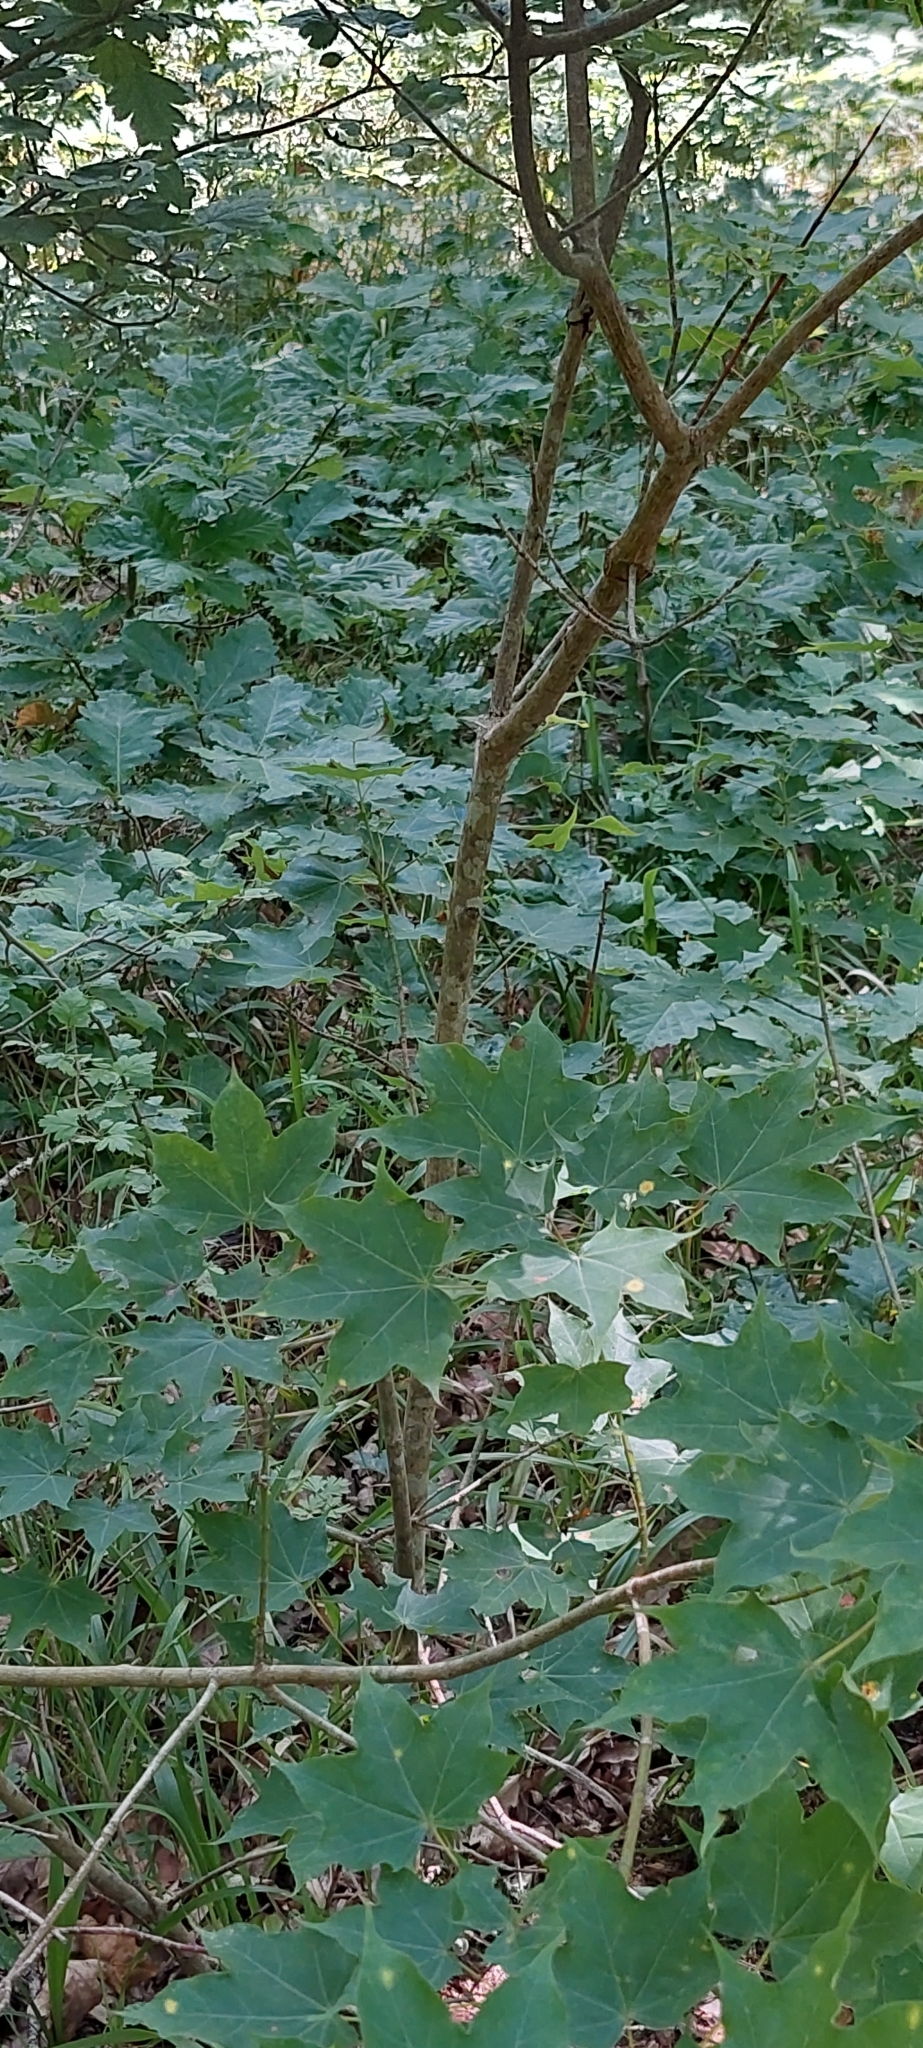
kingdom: Plantae
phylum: Tracheophyta
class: Magnoliopsida
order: Sapindales
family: Sapindaceae
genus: Acer
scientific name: Acer cappadocicum
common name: Cappadocian maple
